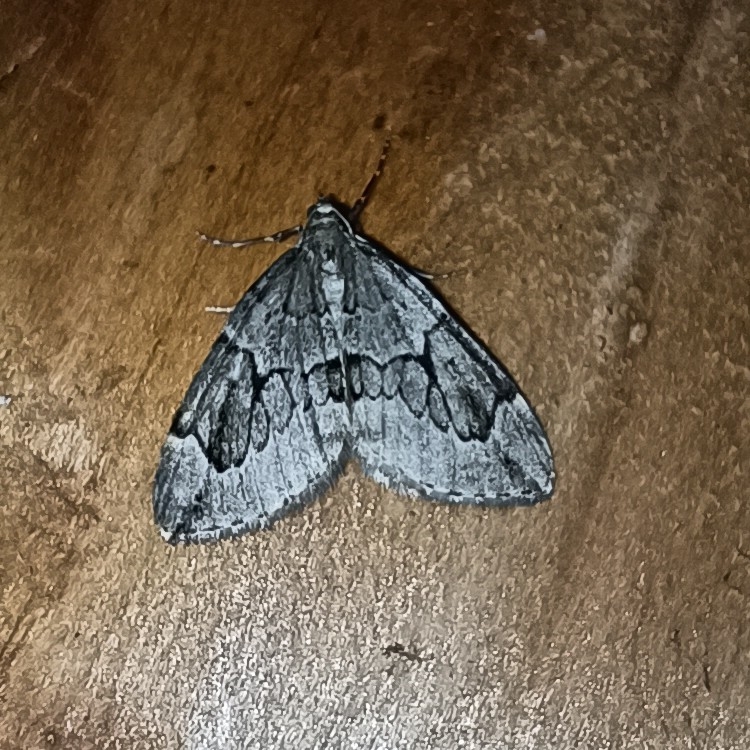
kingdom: Animalia
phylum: Arthropoda
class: Insecta
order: Lepidoptera
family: Geometridae
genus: Thera
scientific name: Thera juniperata
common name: Juniper carpet
